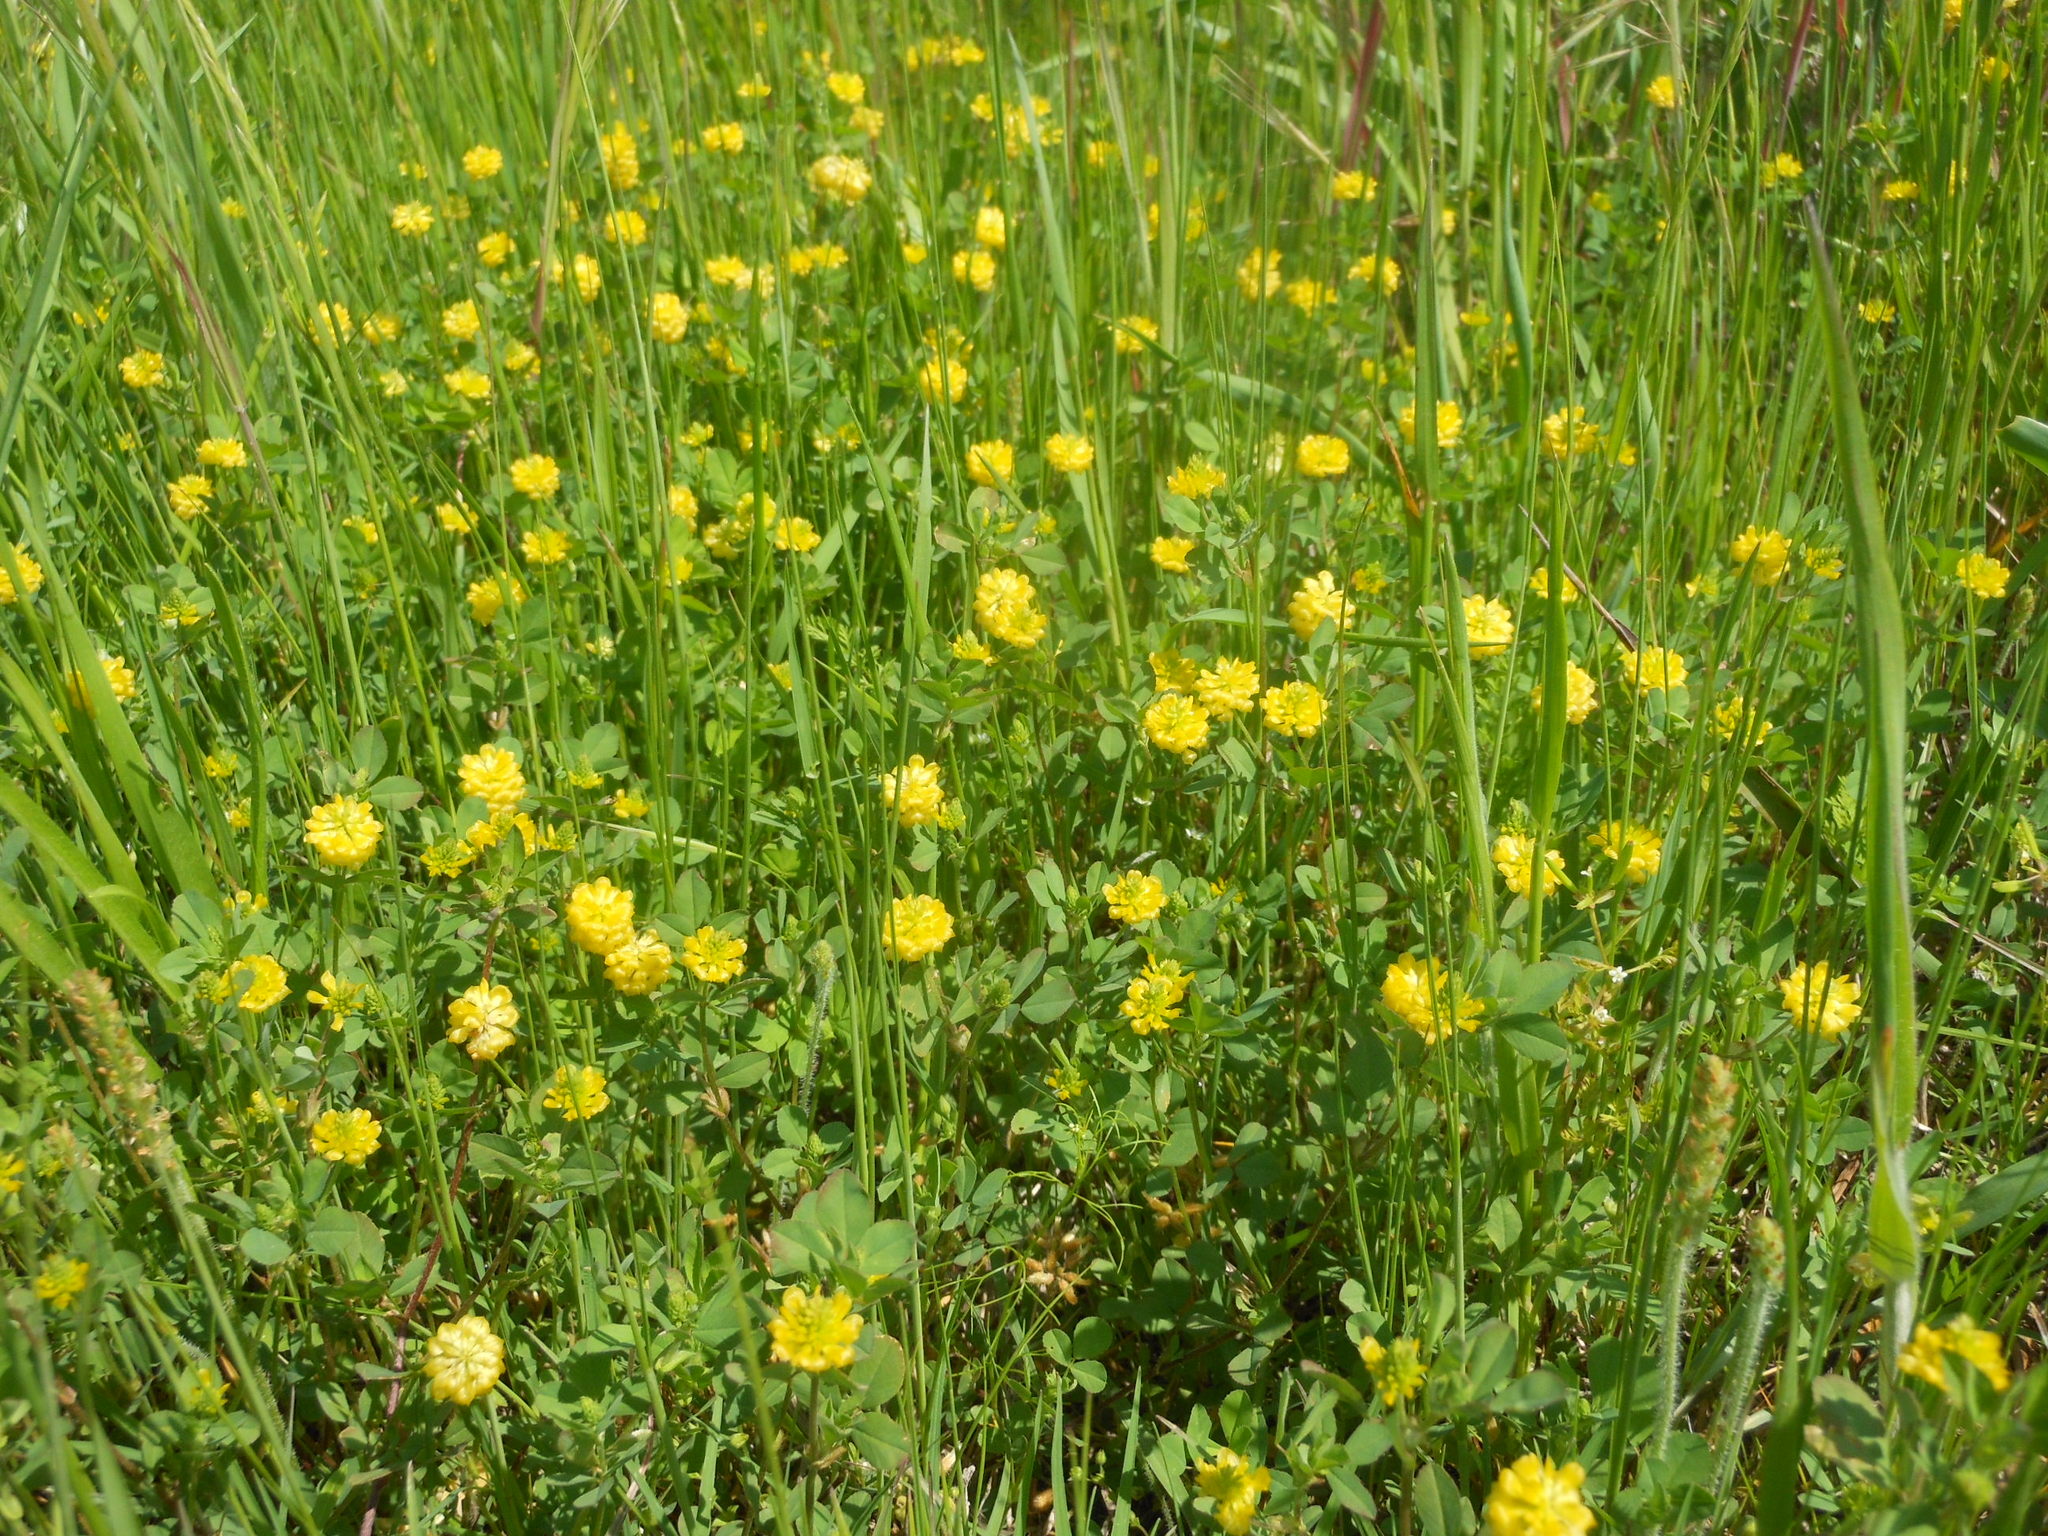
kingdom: Plantae
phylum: Tracheophyta
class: Magnoliopsida
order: Fabales
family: Fabaceae
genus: Trifolium
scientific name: Trifolium campestre
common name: Field clover
